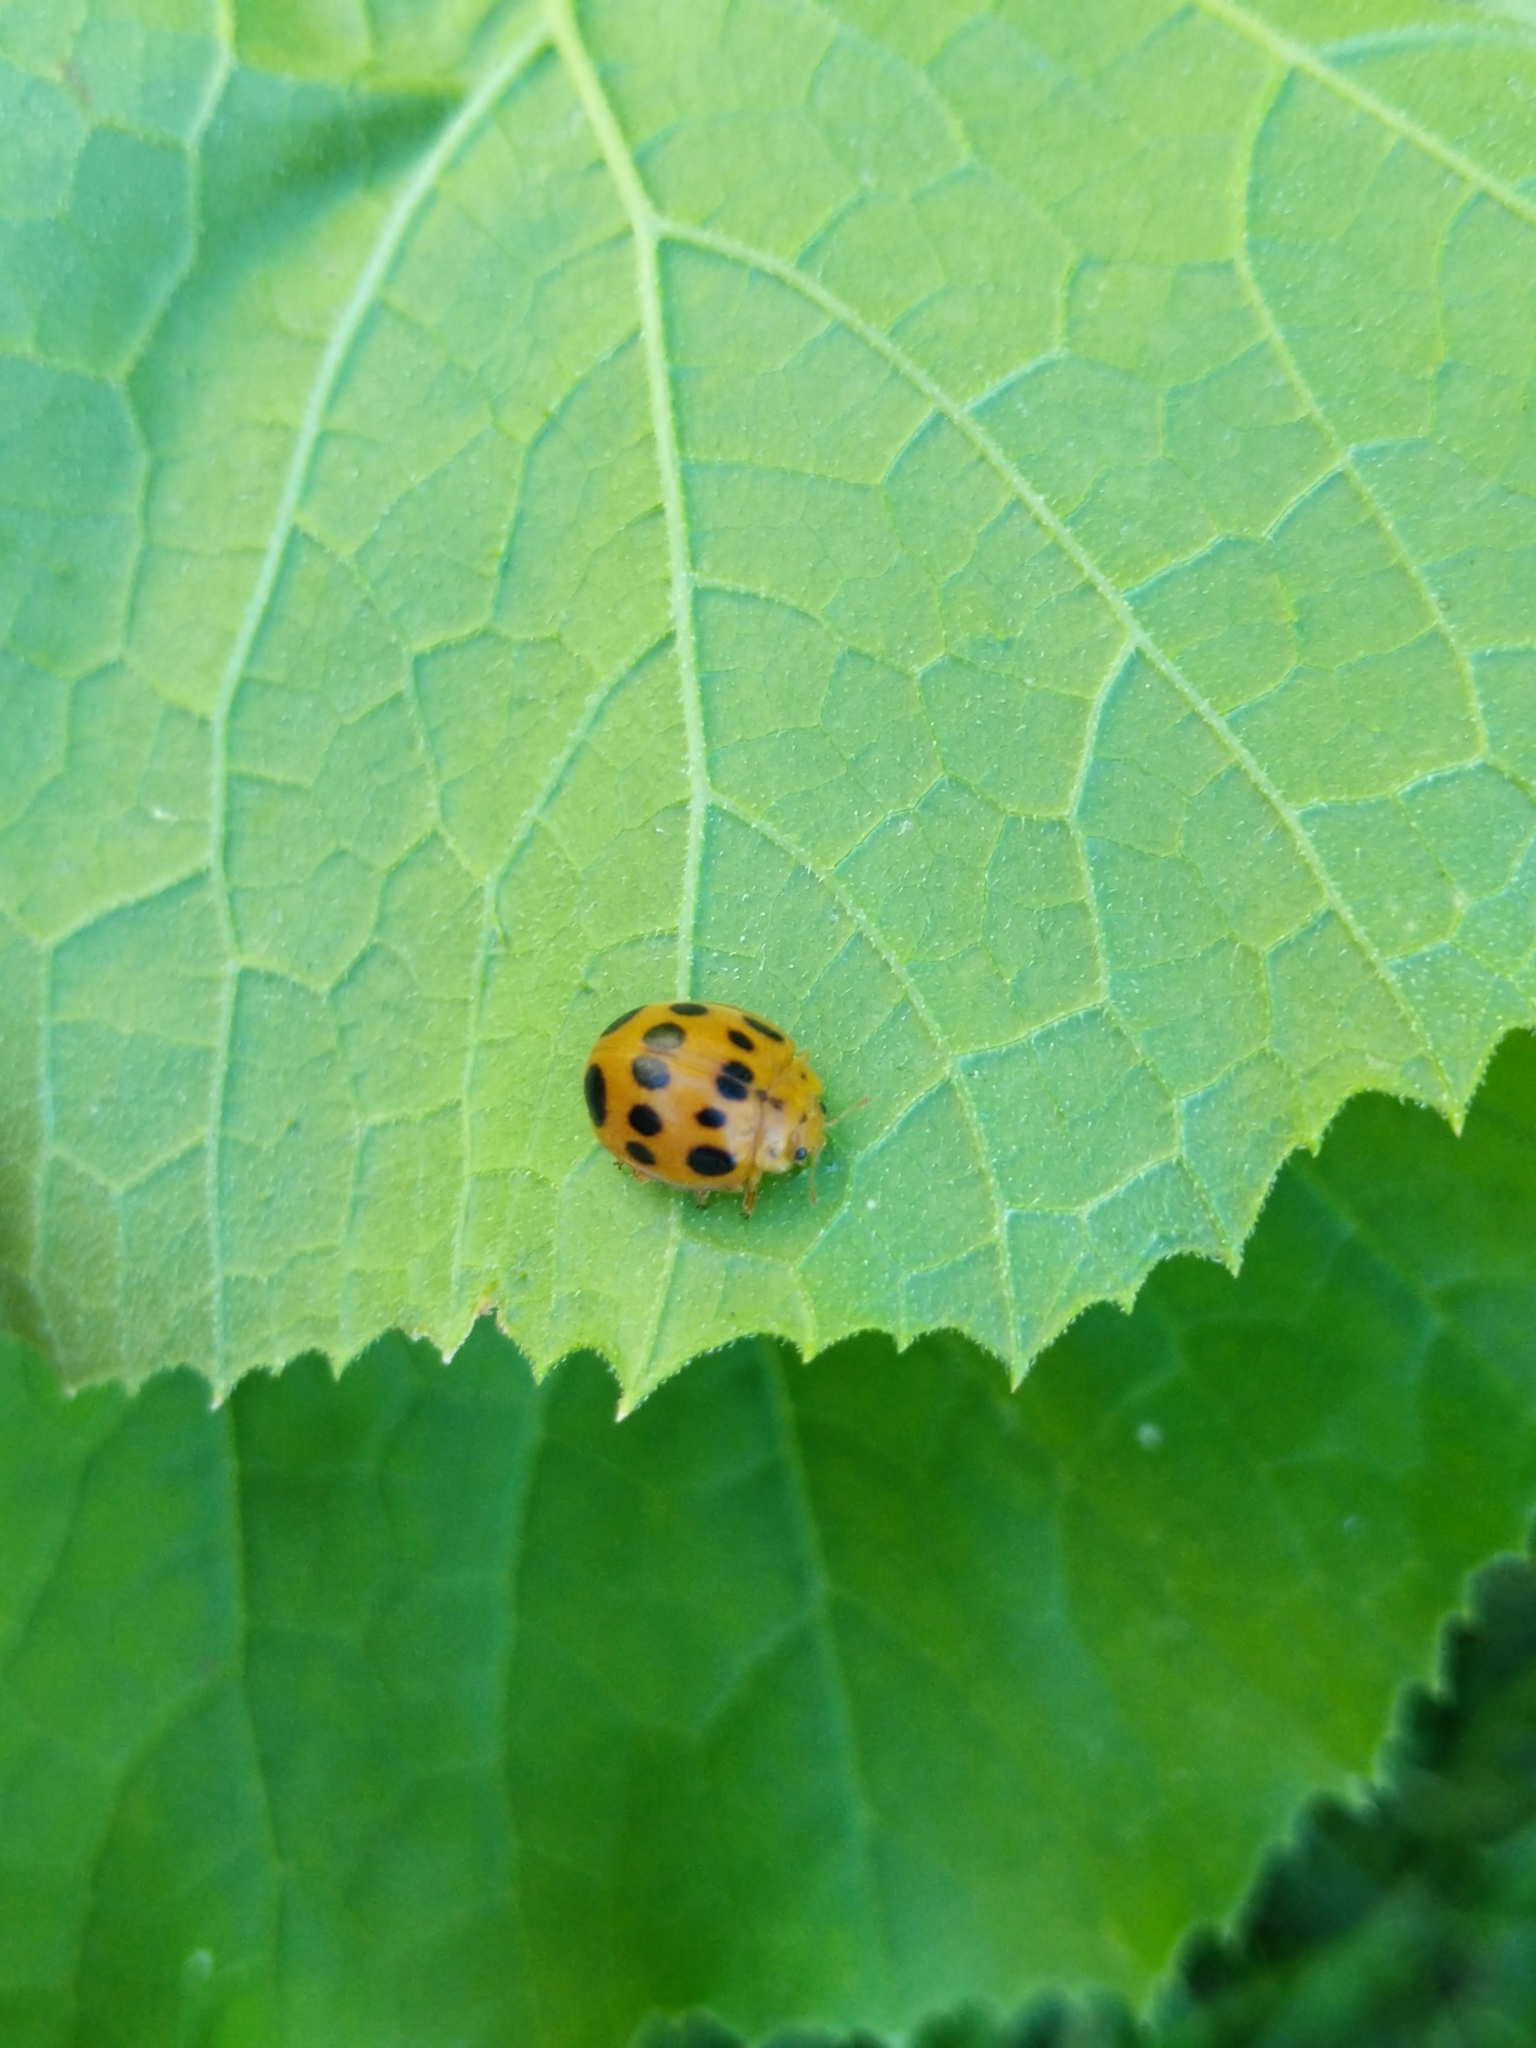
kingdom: Animalia
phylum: Arthropoda
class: Insecta
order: Coleoptera
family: Coccinellidae
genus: Epilachna
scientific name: Epilachna borealis
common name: Squash beetle
